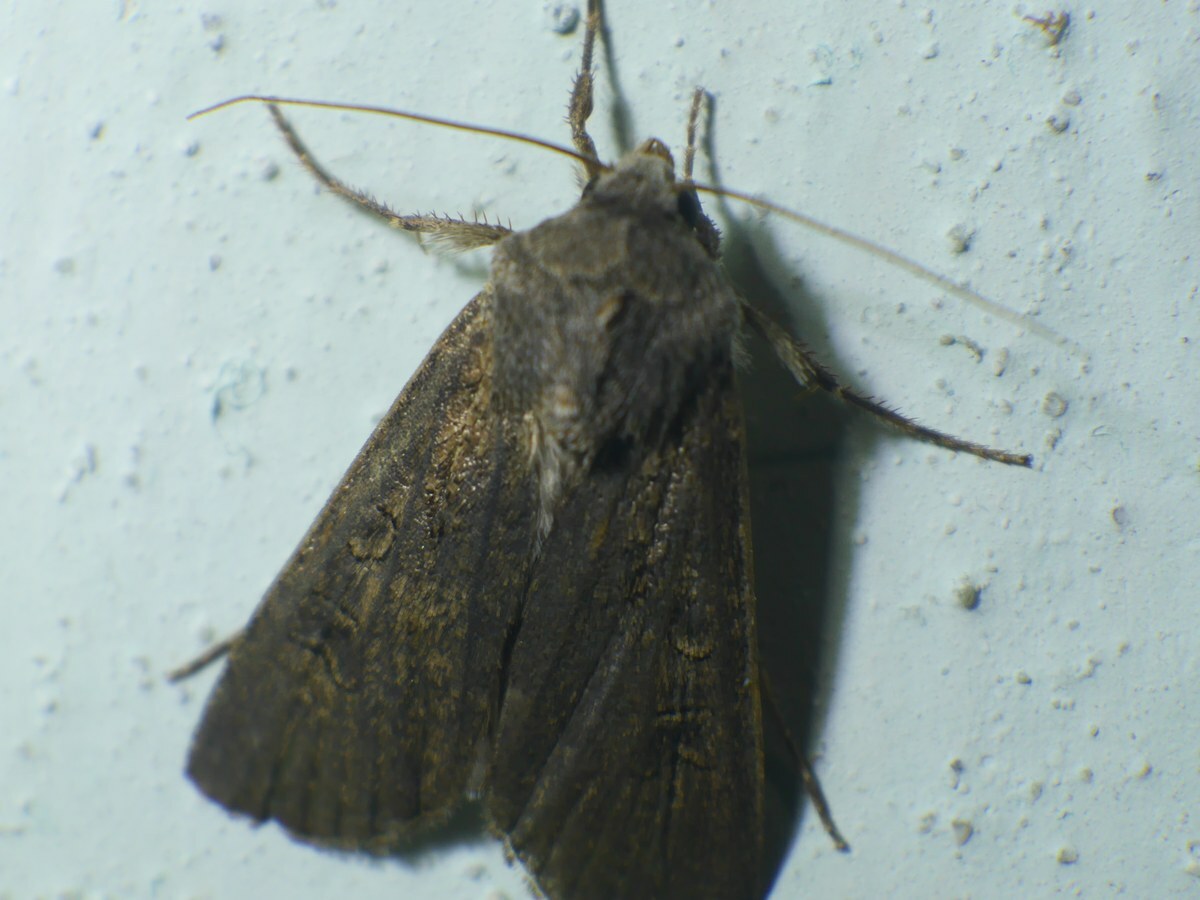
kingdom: Animalia
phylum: Arthropoda
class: Insecta
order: Lepidoptera
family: Noctuidae
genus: Agrotis
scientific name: Agrotis segetum
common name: Turnip moth
